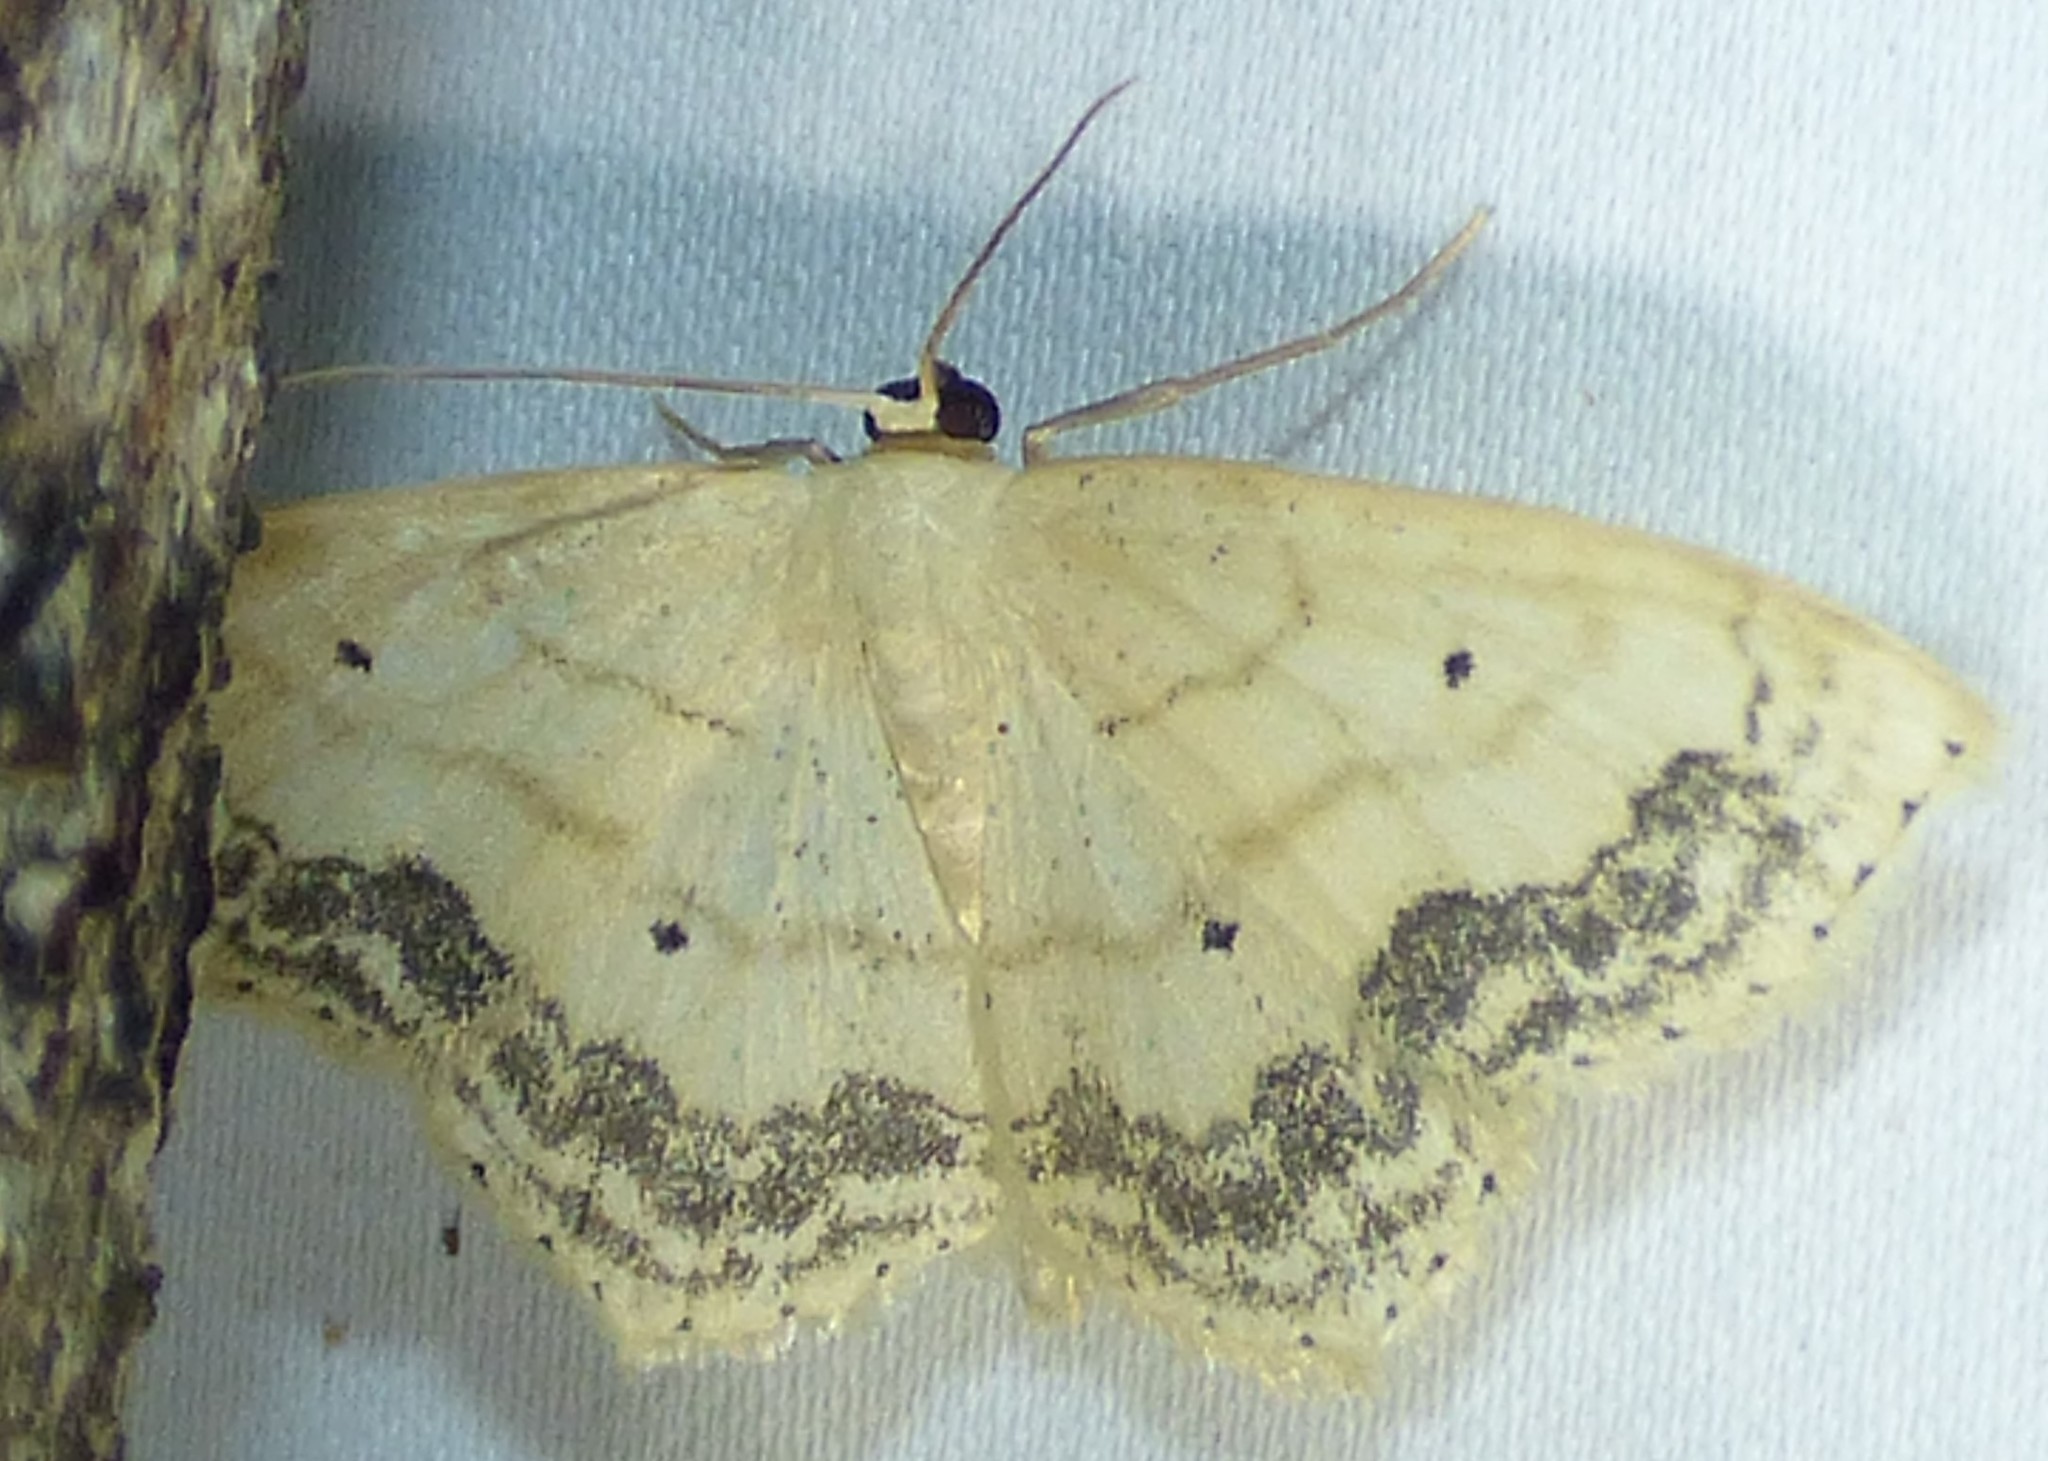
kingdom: Animalia
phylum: Arthropoda
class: Insecta
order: Lepidoptera
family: Geometridae
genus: Scopula
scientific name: Scopula limboundata
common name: Large lace border
